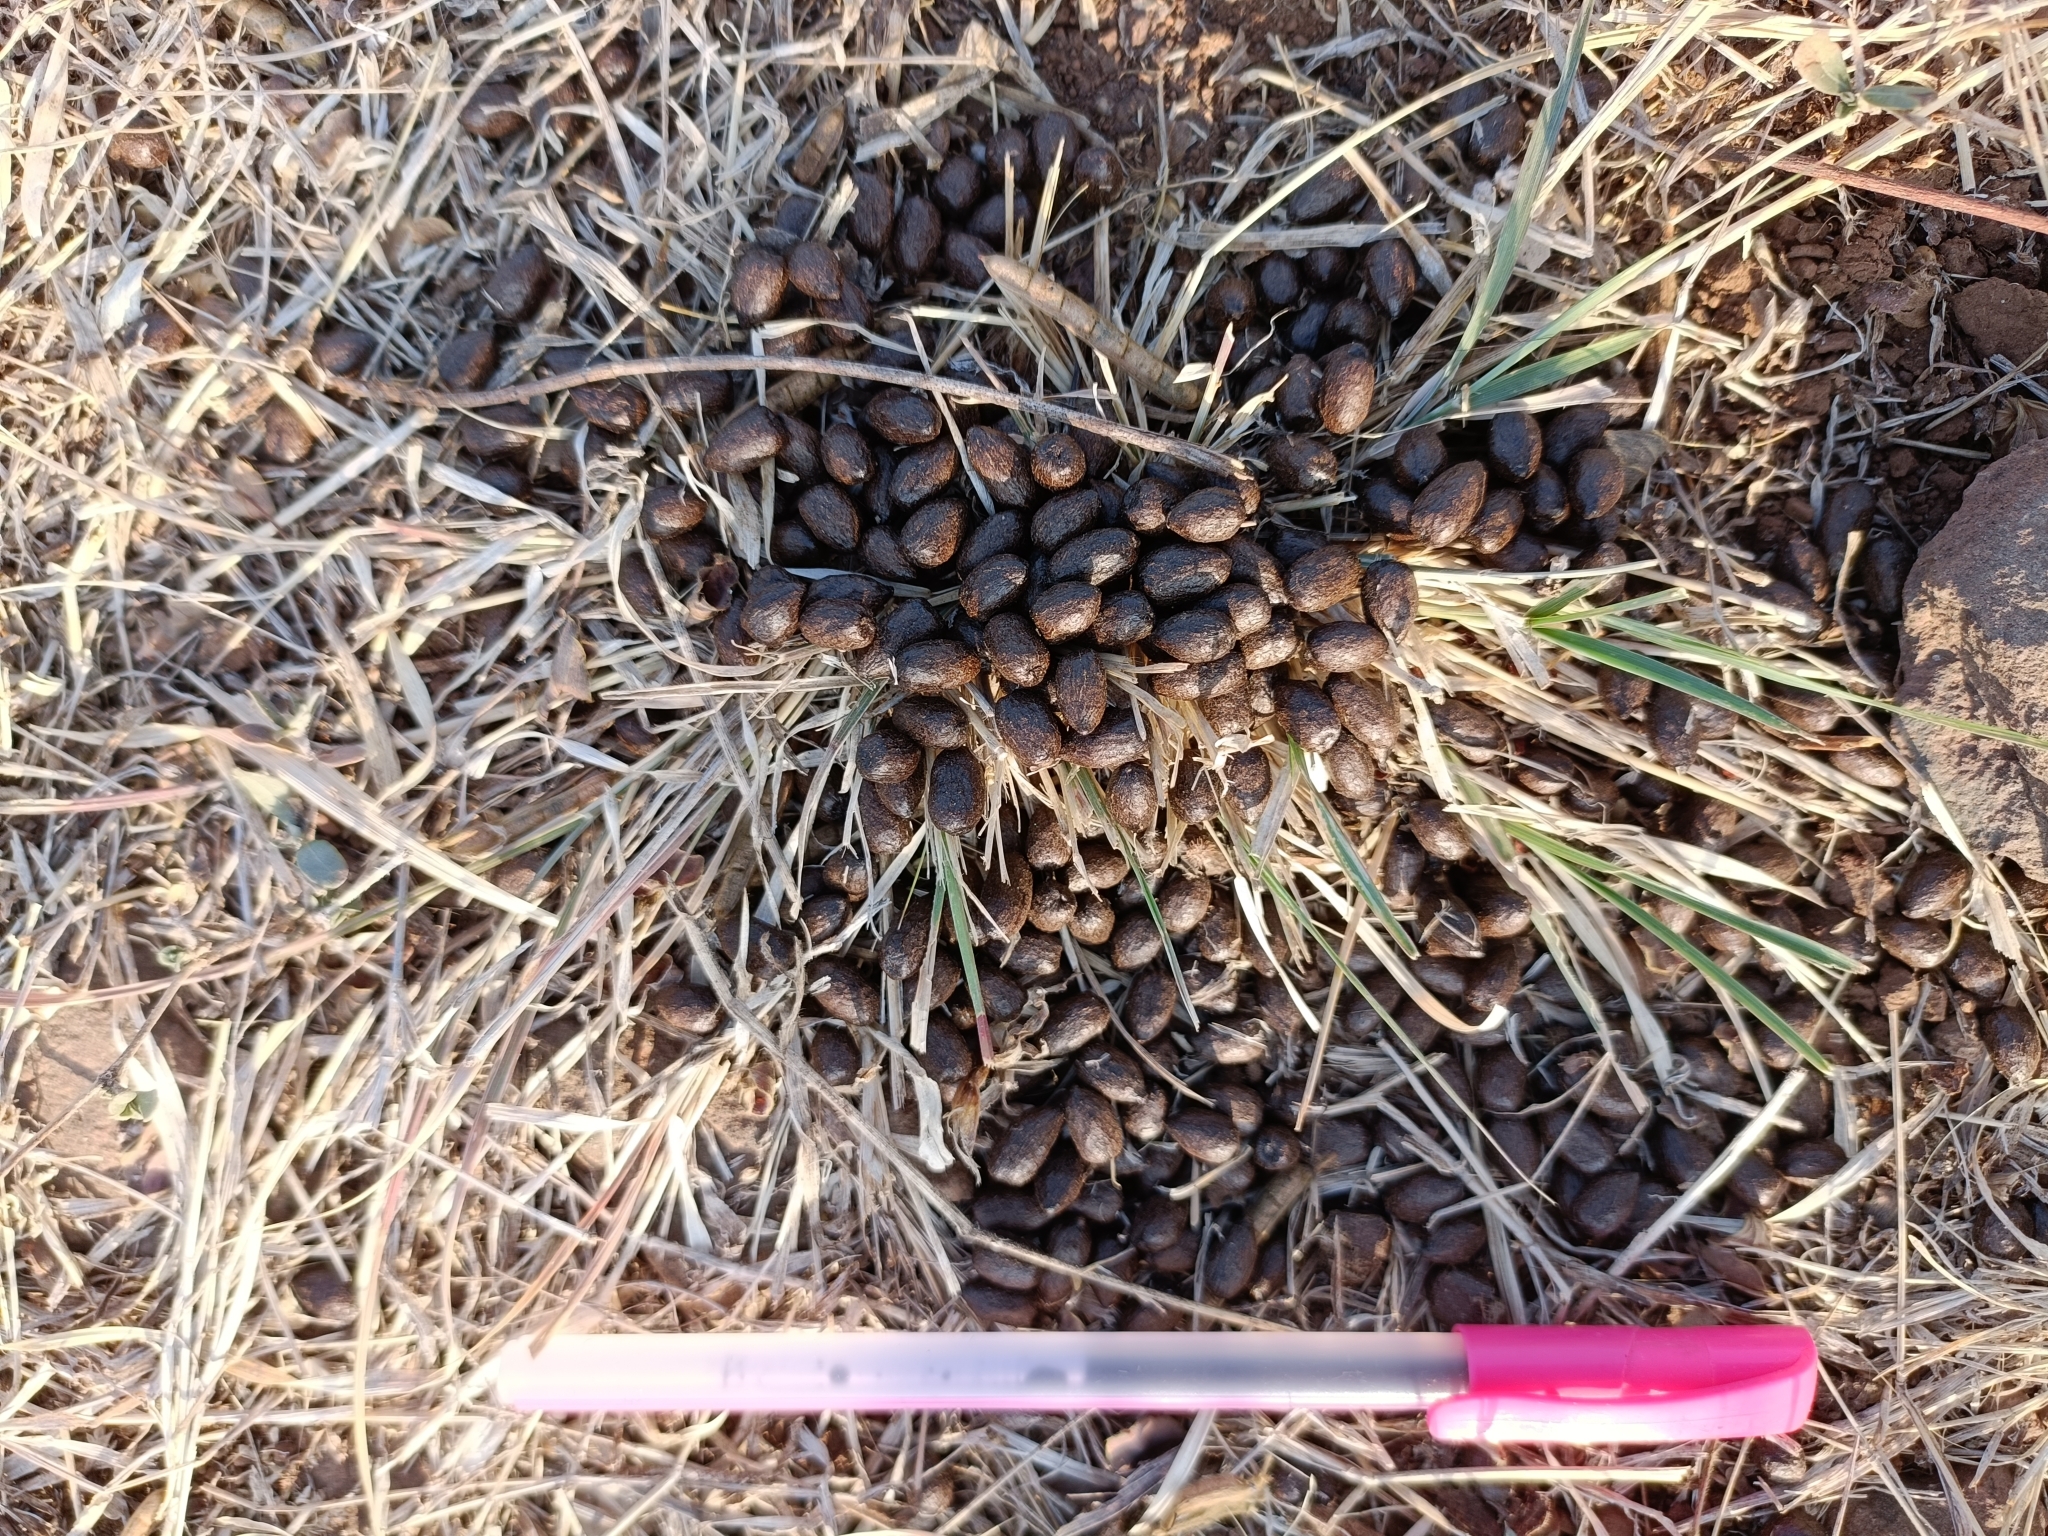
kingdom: Animalia
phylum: Chordata
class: Mammalia
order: Artiodactyla
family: Bovidae
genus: Gazella
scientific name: Gazella bennettii
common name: Indian gazelle
